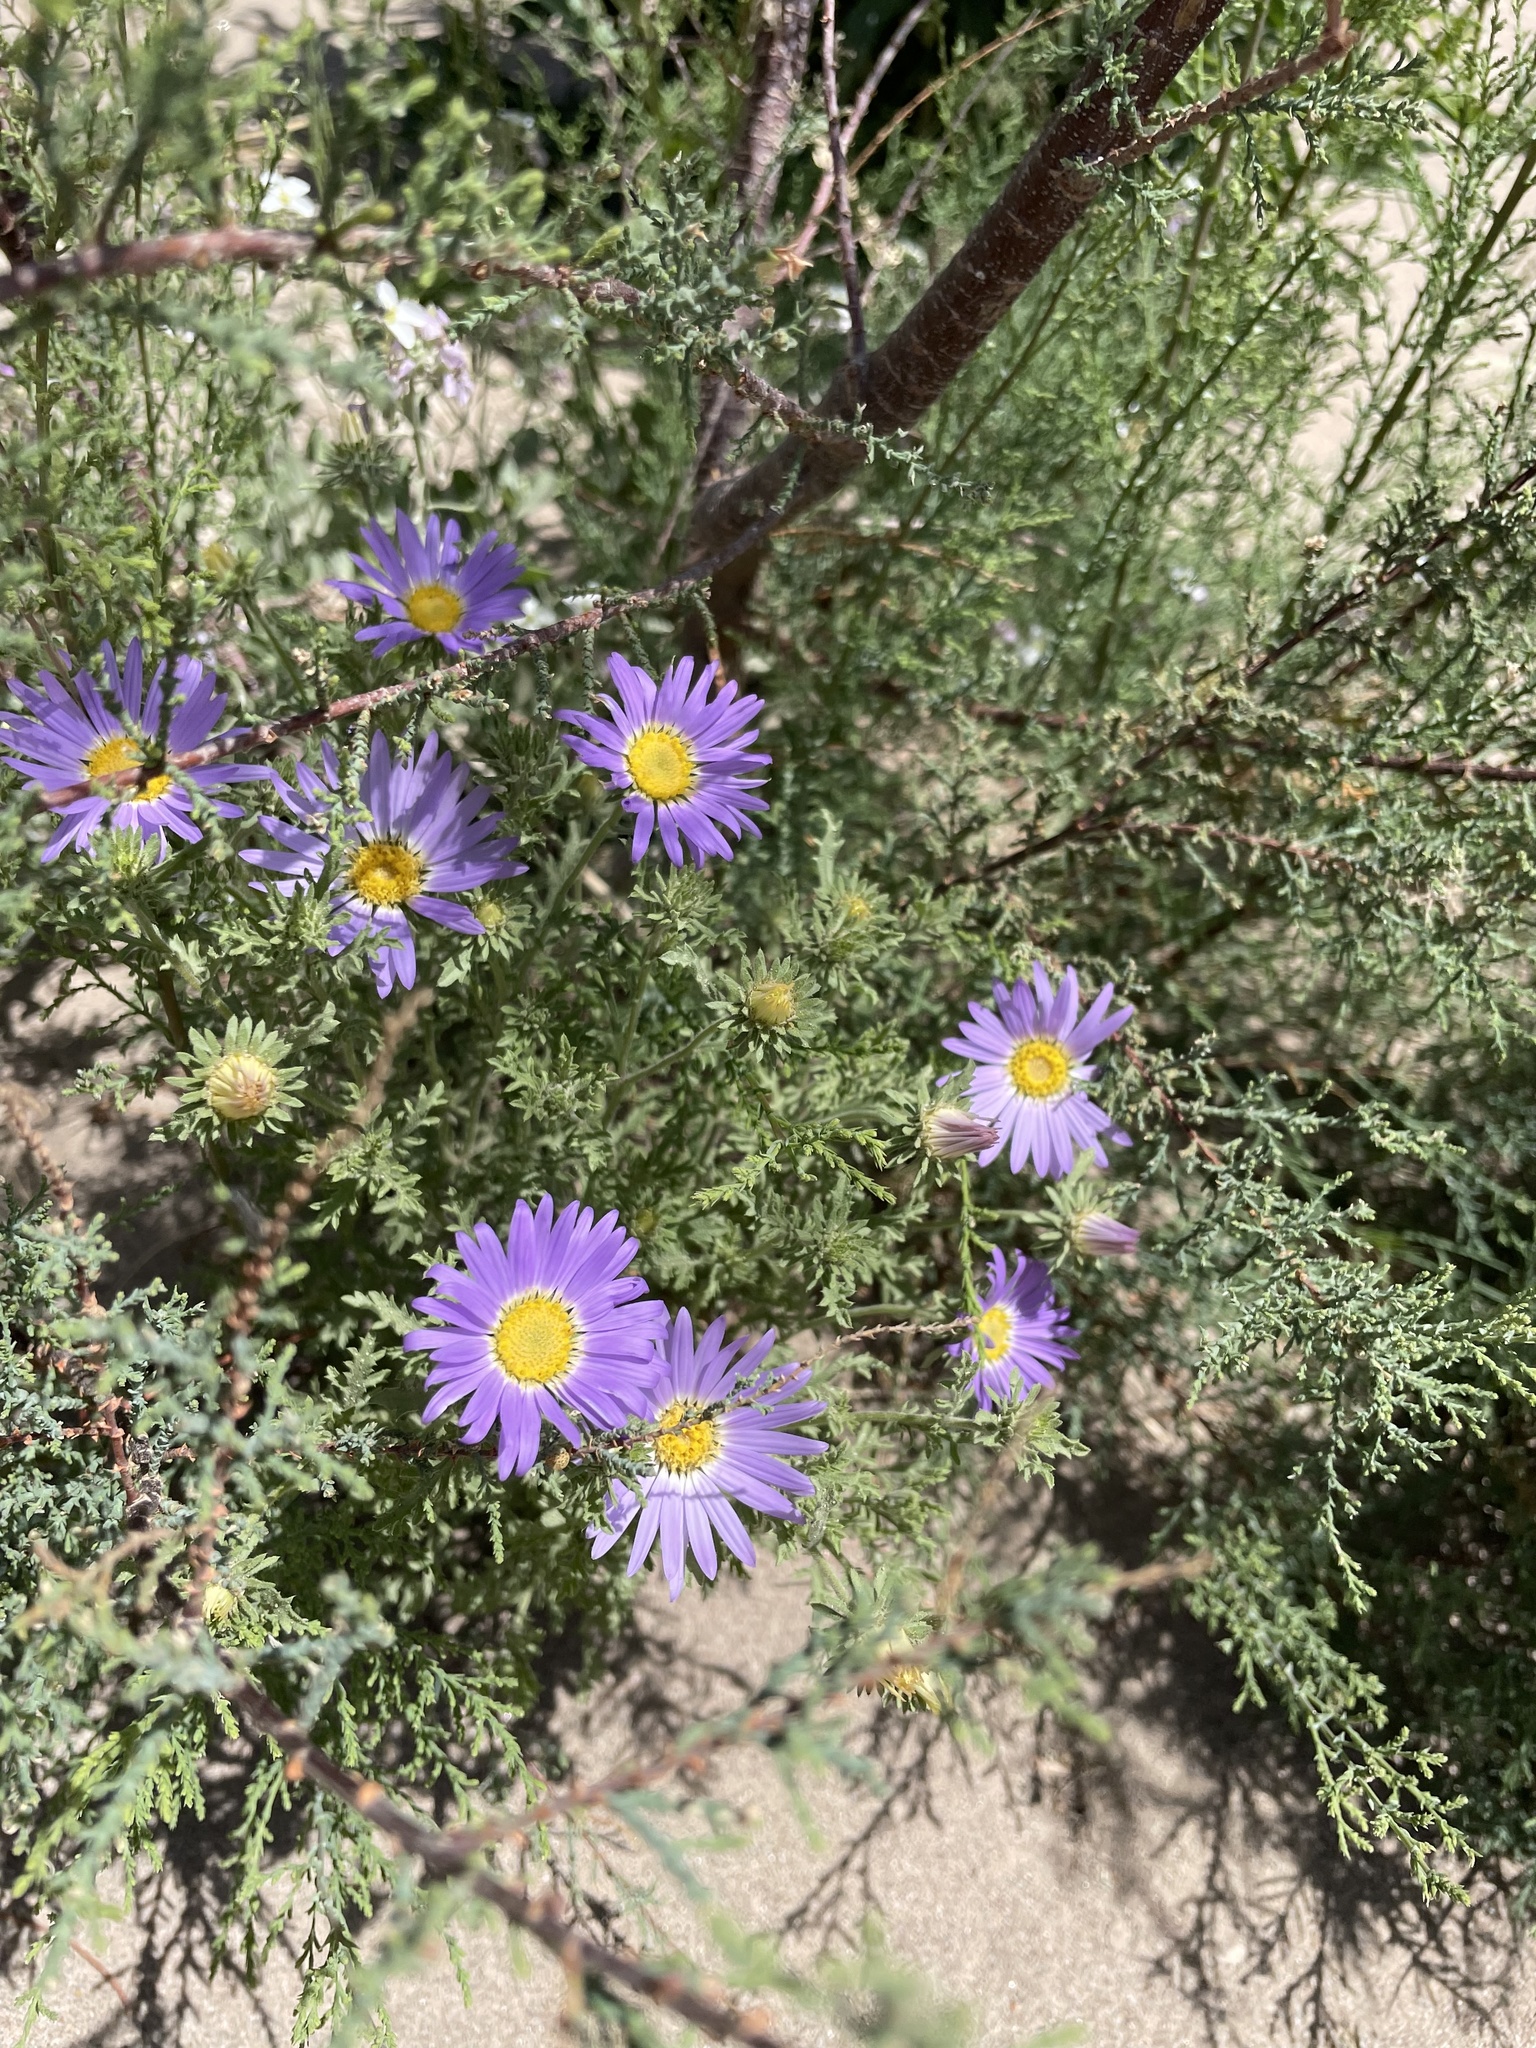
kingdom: Plantae
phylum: Tracheophyta
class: Magnoliopsida
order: Asterales
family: Asteraceae
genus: Machaeranthera
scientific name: Machaeranthera tanacetifolia
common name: Tansy-aster
